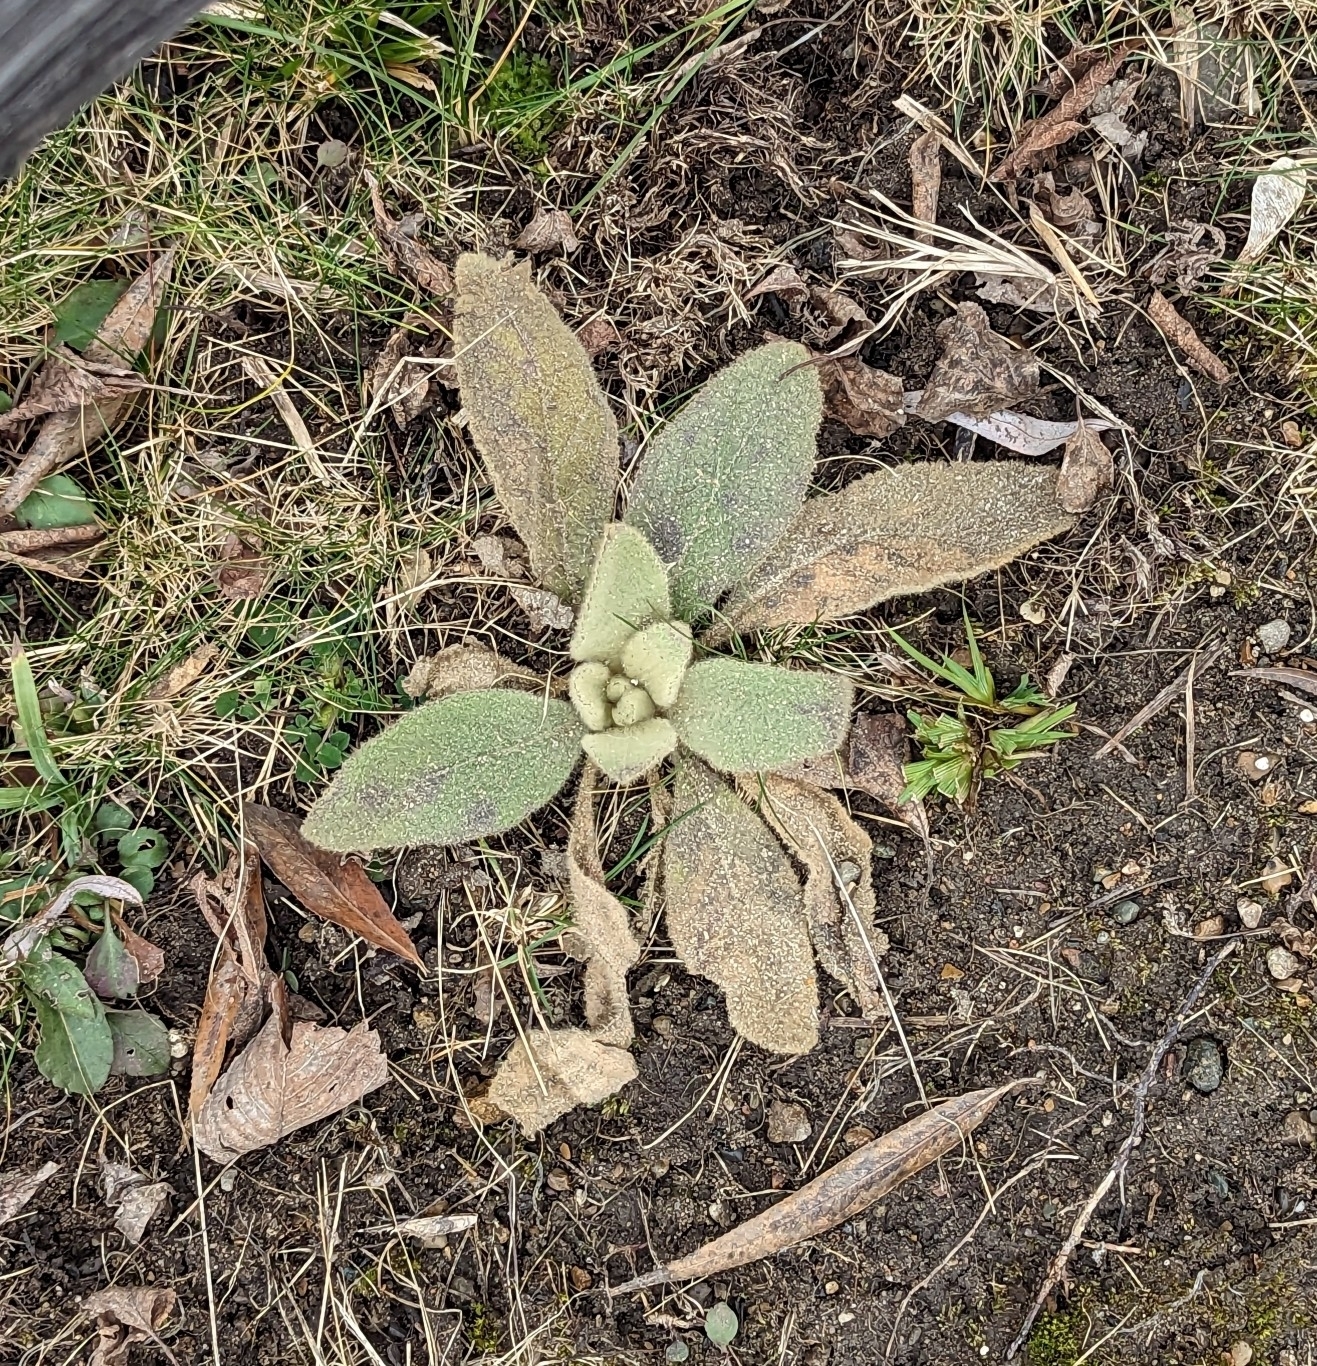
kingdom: Plantae
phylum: Tracheophyta
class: Magnoliopsida
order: Lamiales
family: Scrophulariaceae
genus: Verbascum
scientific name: Verbascum thapsus
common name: Common mullein
